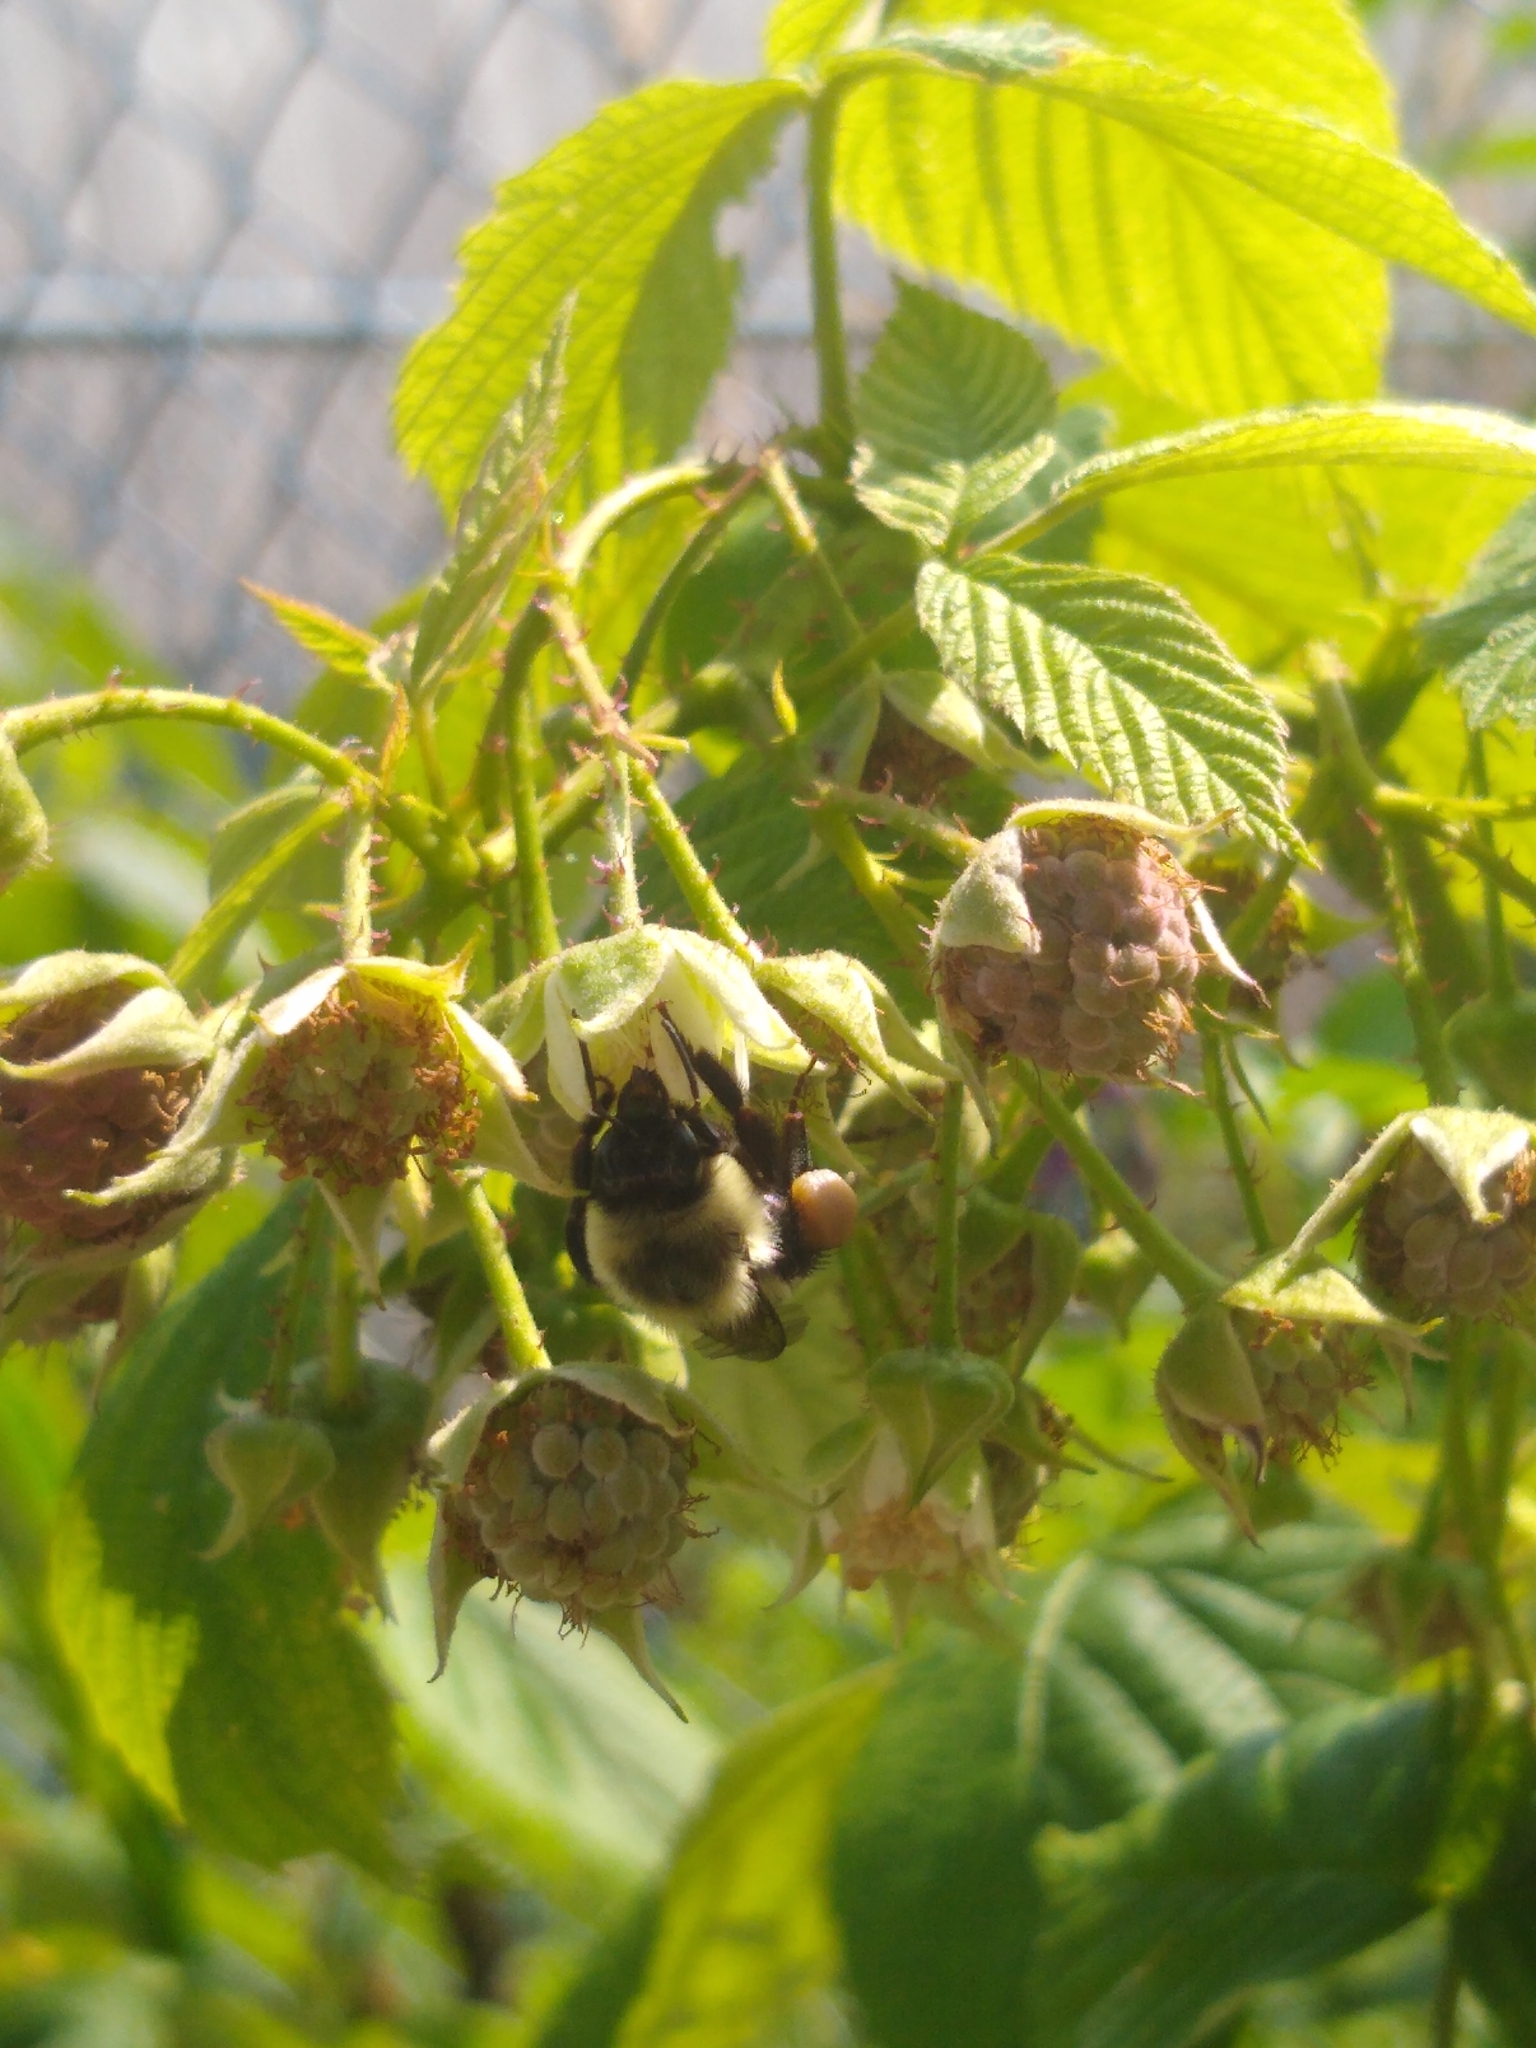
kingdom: Animalia
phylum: Arthropoda
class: Insecta
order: Hymenoptera
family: Apidae
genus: Bombus
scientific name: Bombus impatiens
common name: Common eastern bumble bee
